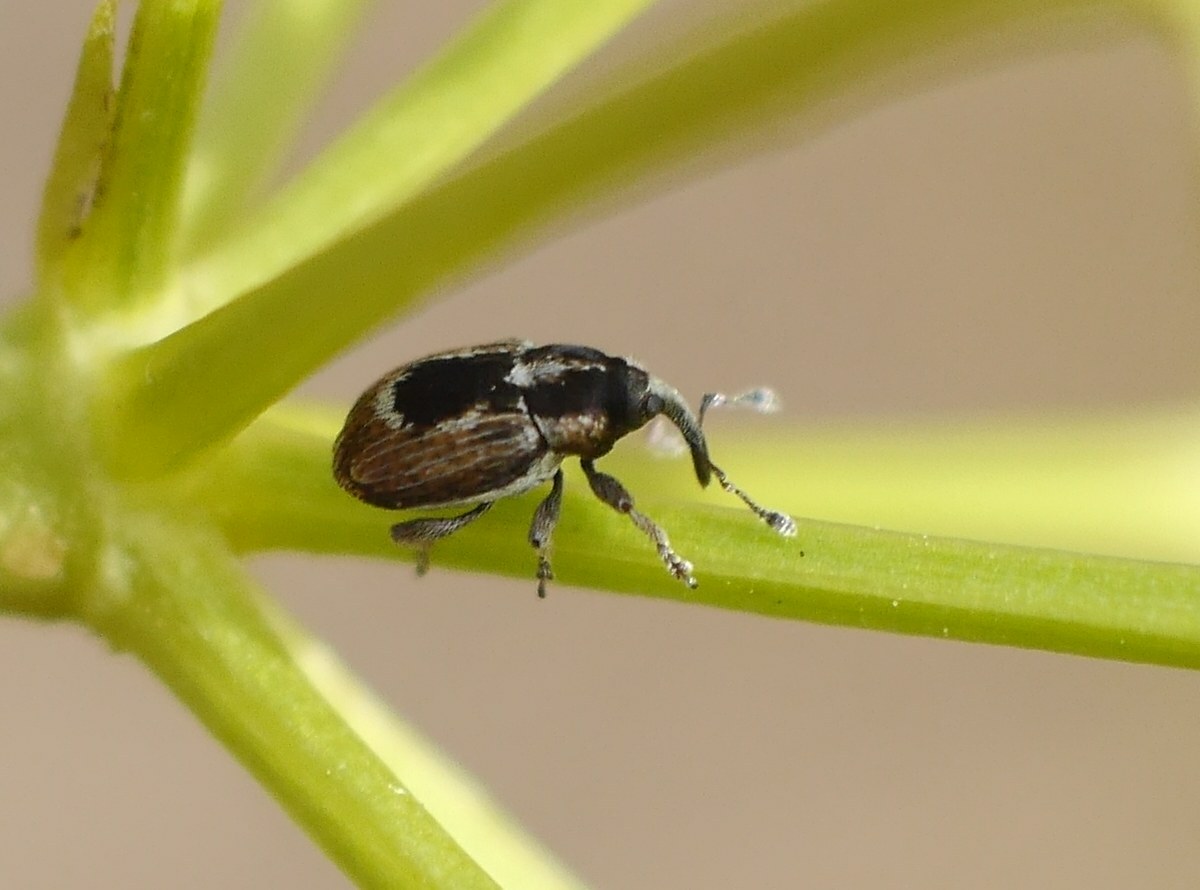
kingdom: Animalia
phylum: Arthropoda
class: Insecta
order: Coleoptera
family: Curculionidae
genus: Sibinia
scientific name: Sibinia phalerata
